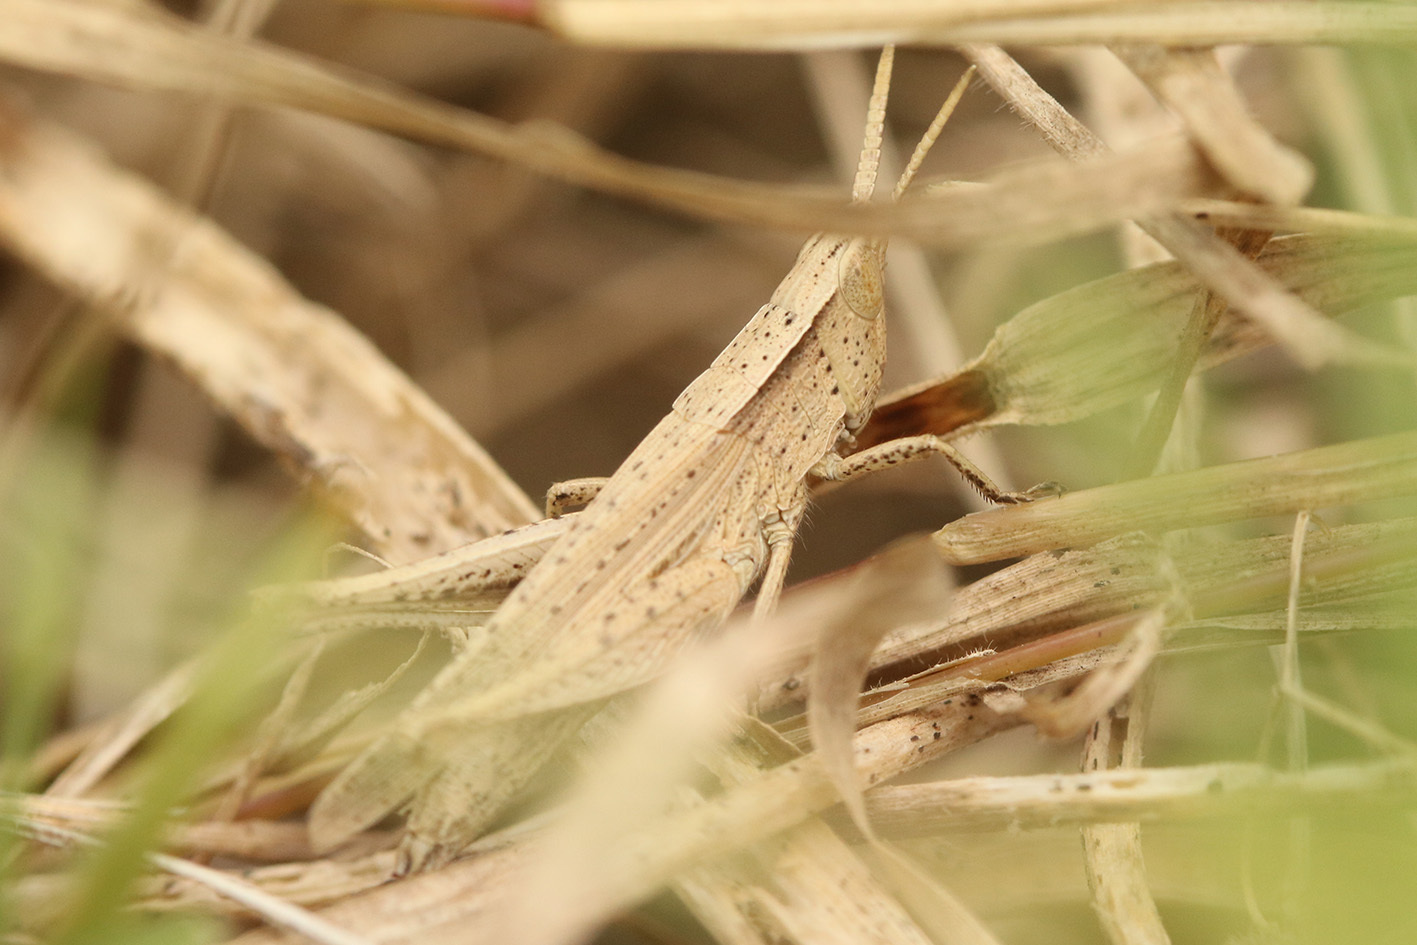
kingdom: Animalia
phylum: Arthropoda
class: Insecta
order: Orthoptera
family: Acrididae
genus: Laplatacris
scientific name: Laplatacris dispar
